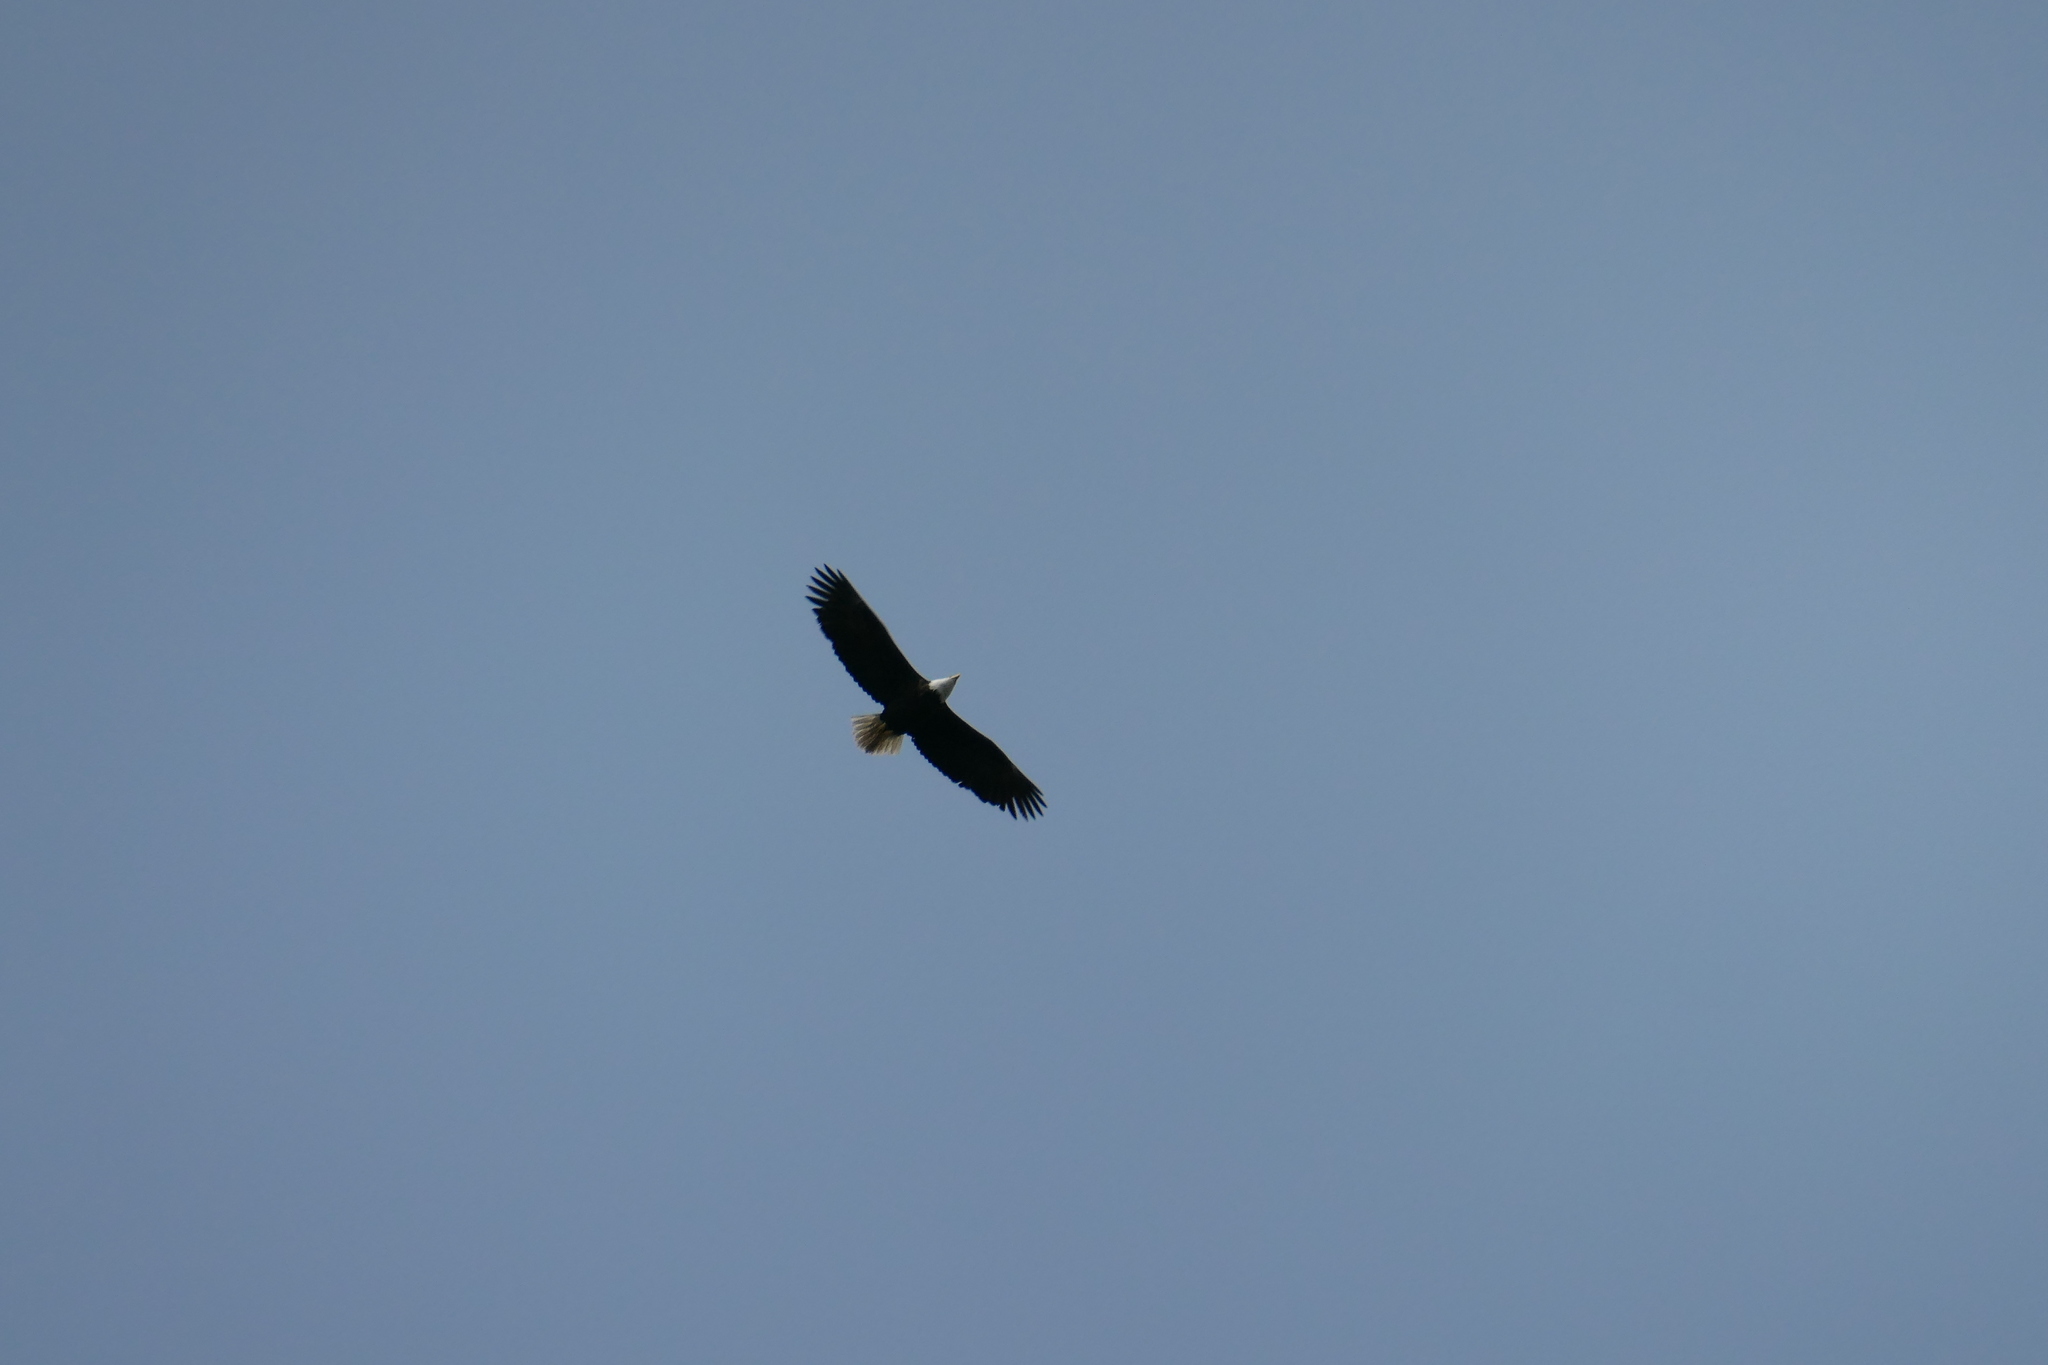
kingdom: Animalia
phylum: Chordata
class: Aves
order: Accipitriformes
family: Accipitridae
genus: Haliaeetus
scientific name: Haliaeetus leucocephalus
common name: Bald eagle
